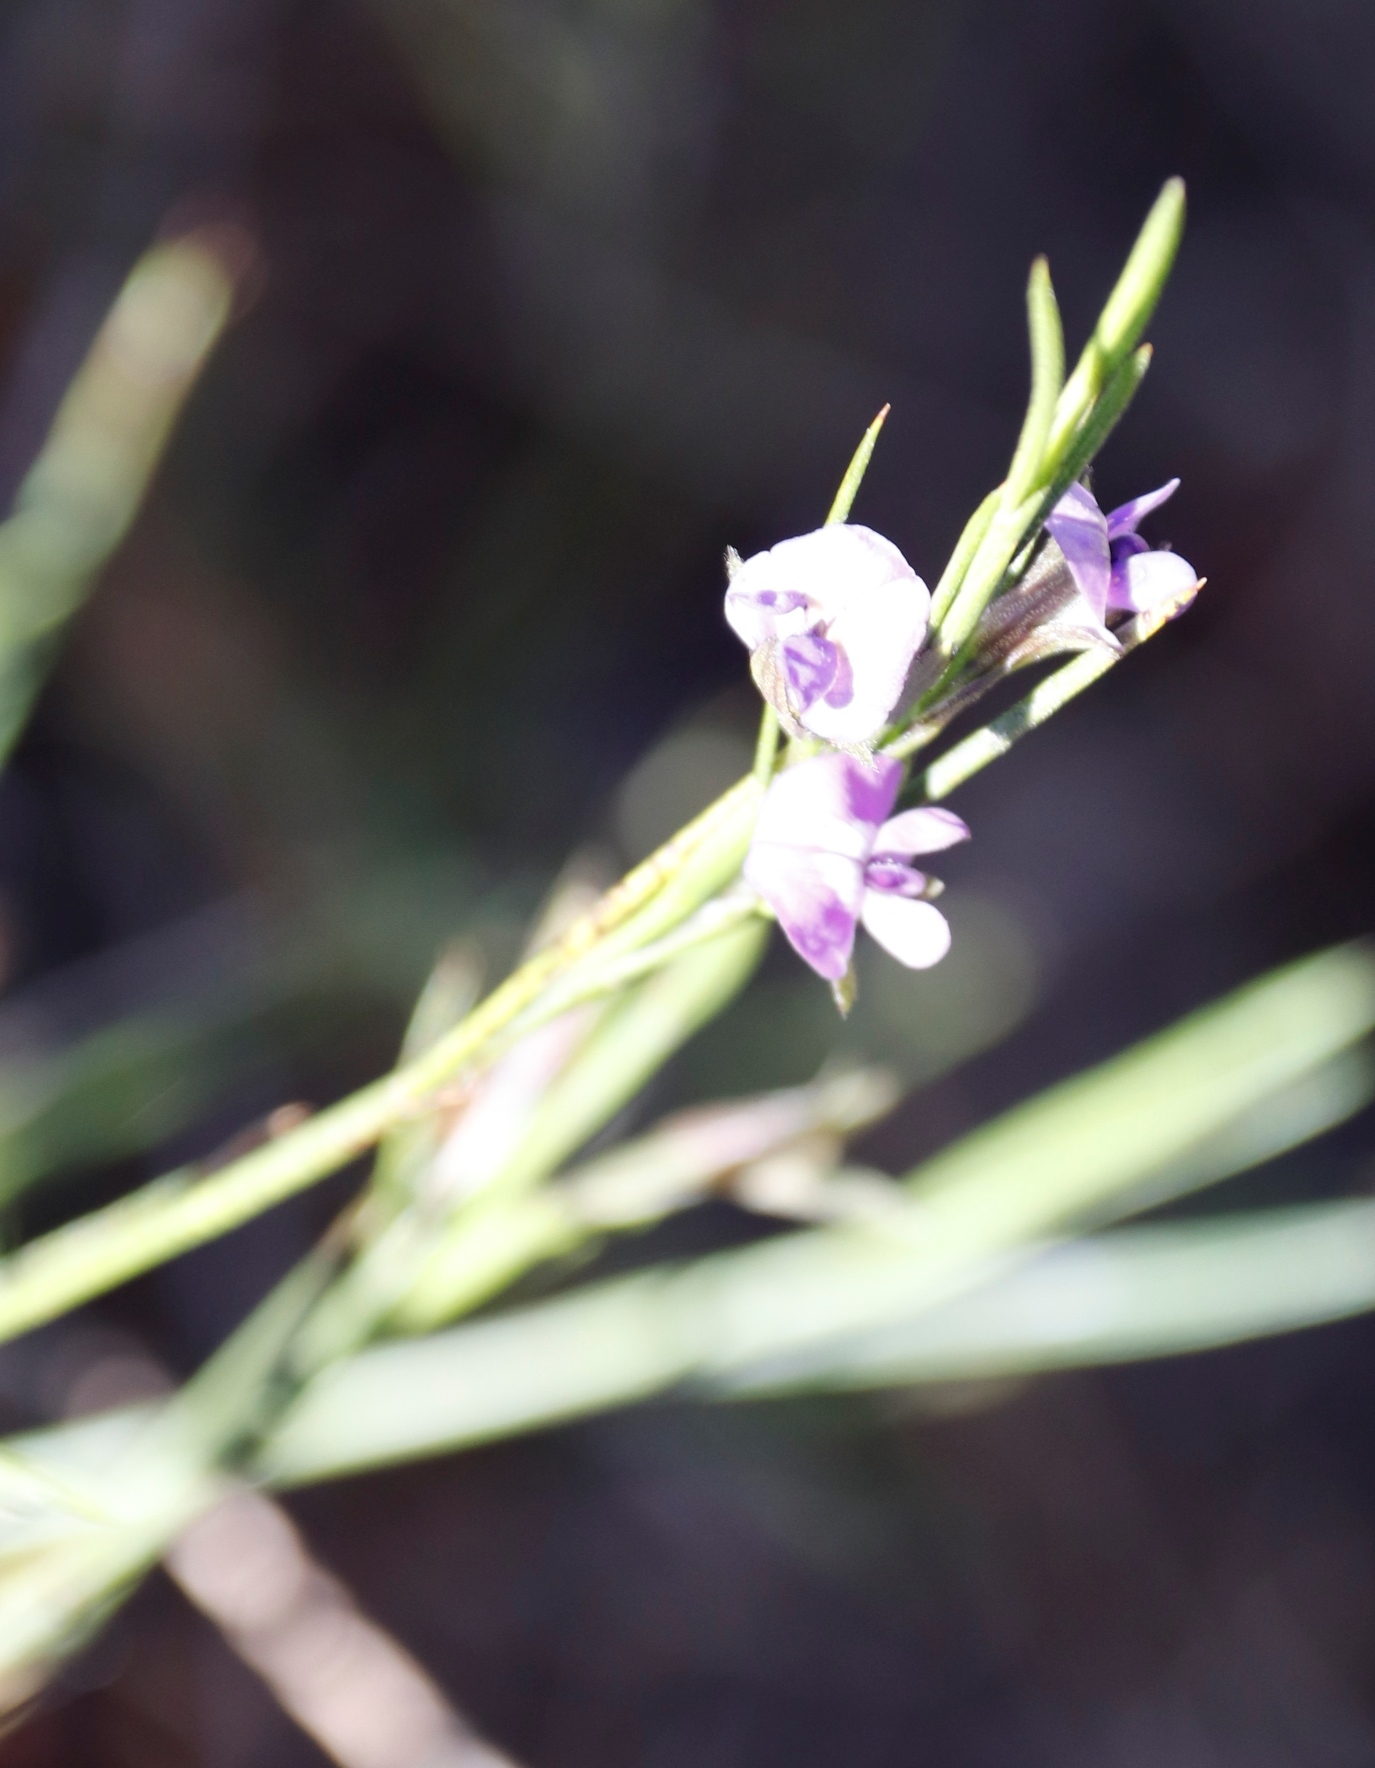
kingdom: Plantae
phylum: Tracheophyta
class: Magnoliopsida
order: Fabales
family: Fabaceae
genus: Psoralea
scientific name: Psoralea fascicularis
